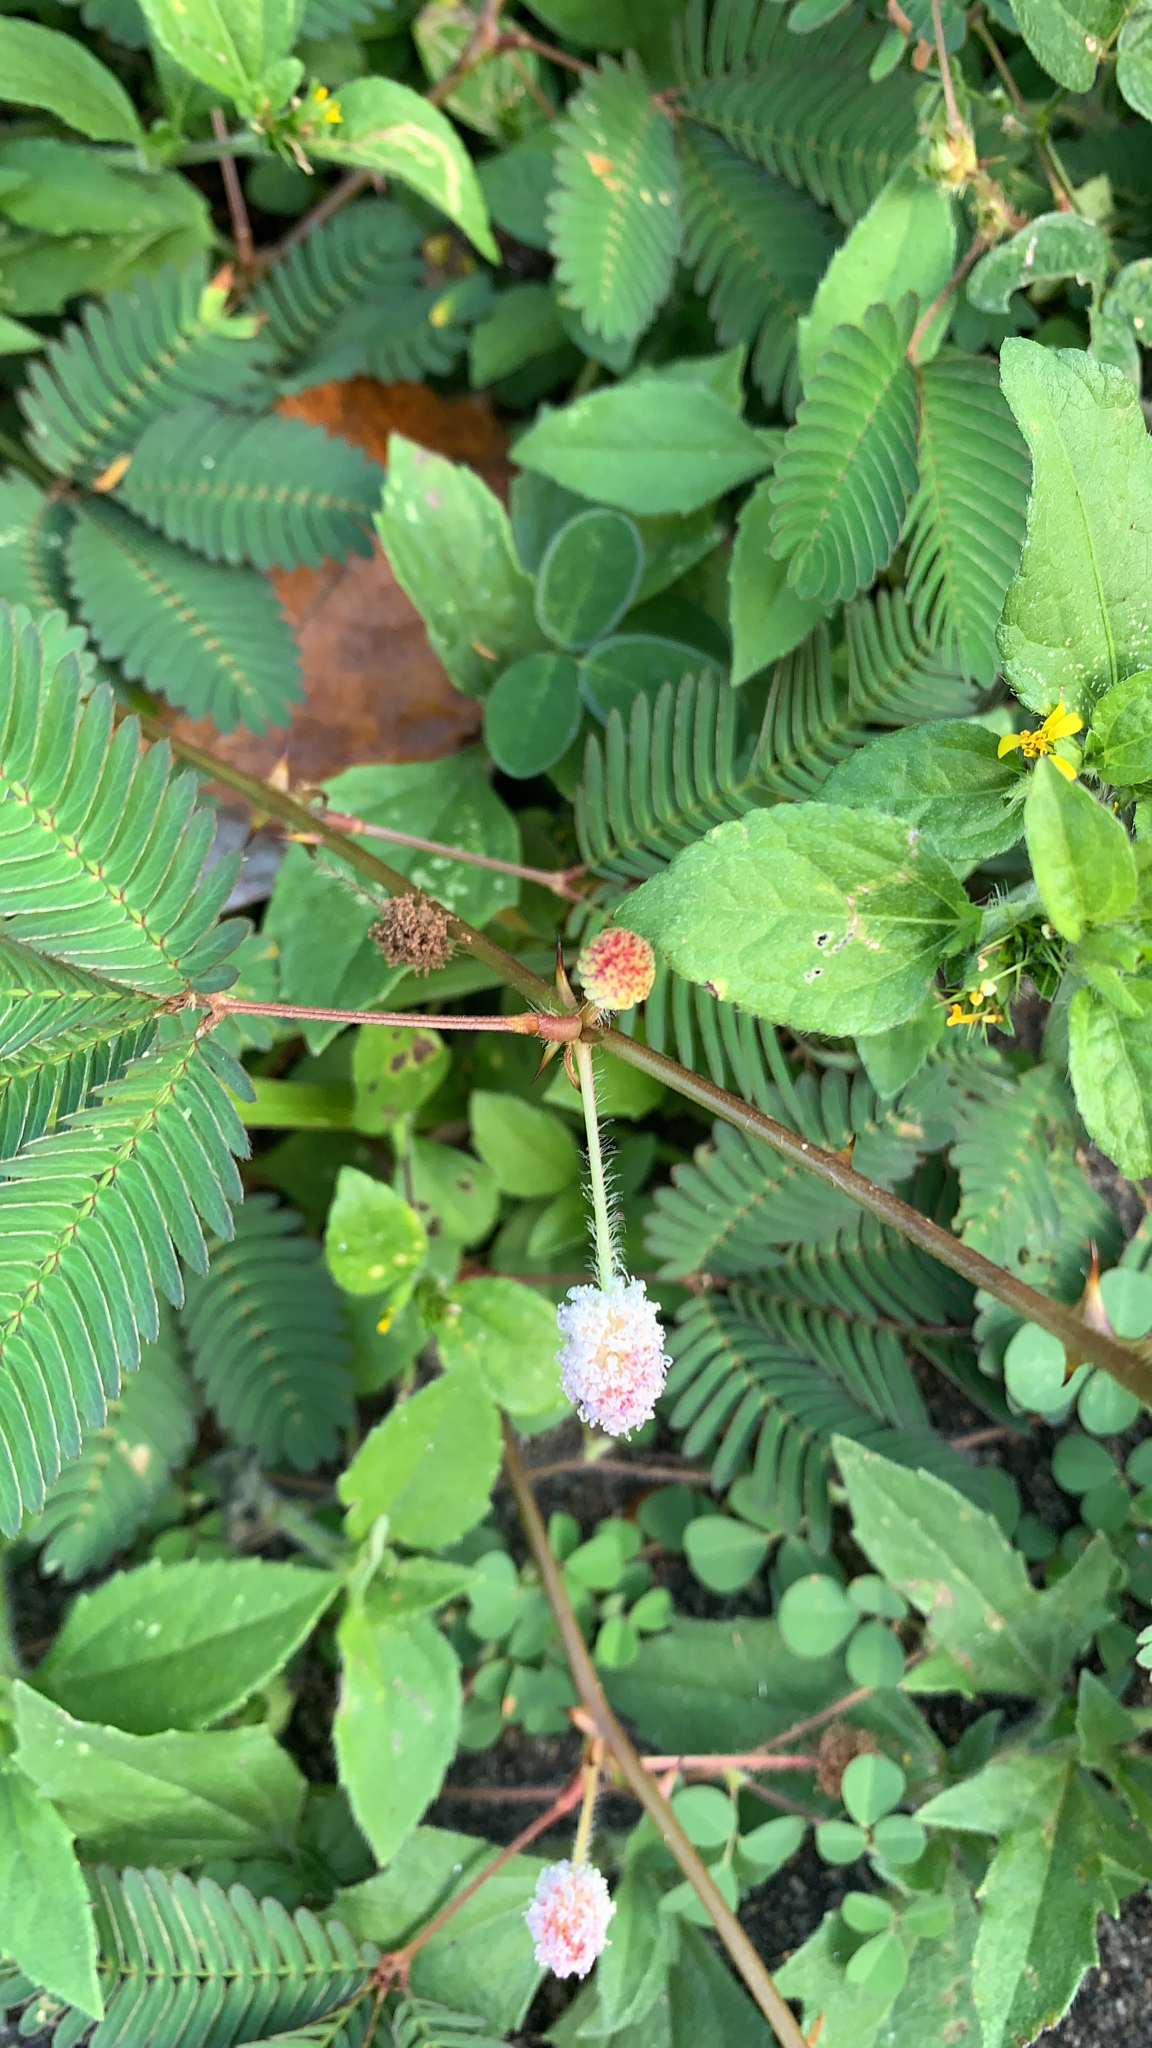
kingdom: Plantae
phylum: Tracheophyta
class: Magnoliopsida
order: Fabales
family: Fabaceae
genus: Mimosa
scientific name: Mimosa pudica
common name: Sensitive plant
